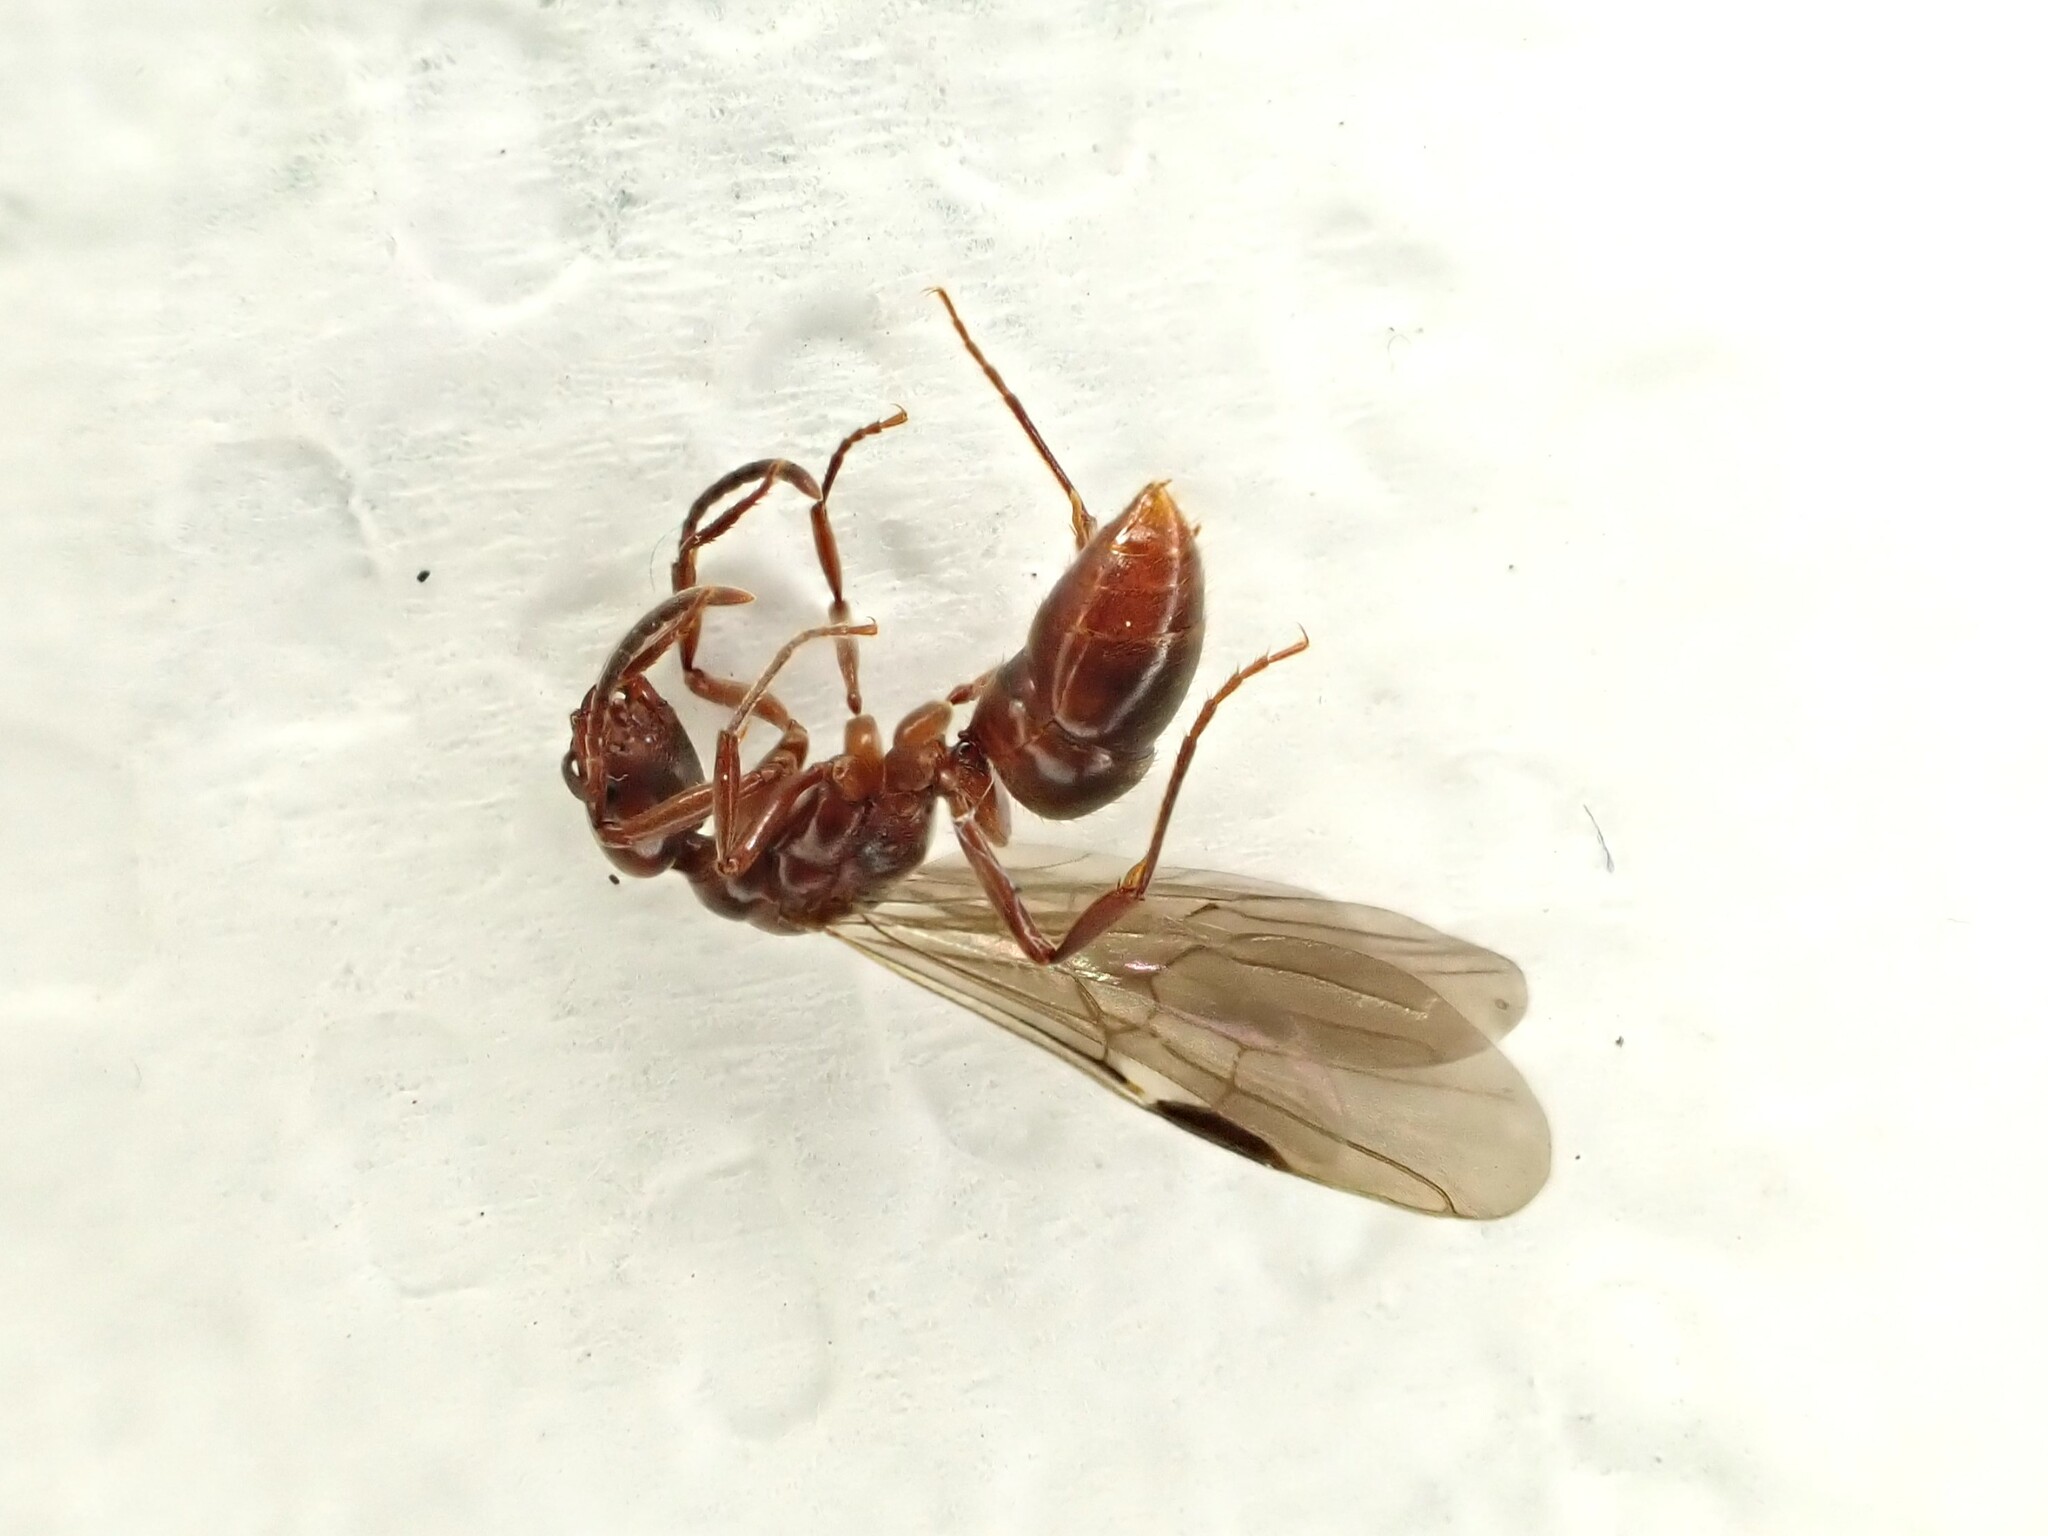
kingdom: Animalia
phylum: Arthropoda
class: Insecta
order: Hymenoptera
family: Formicidae
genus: Austroponera
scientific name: Austroponera
